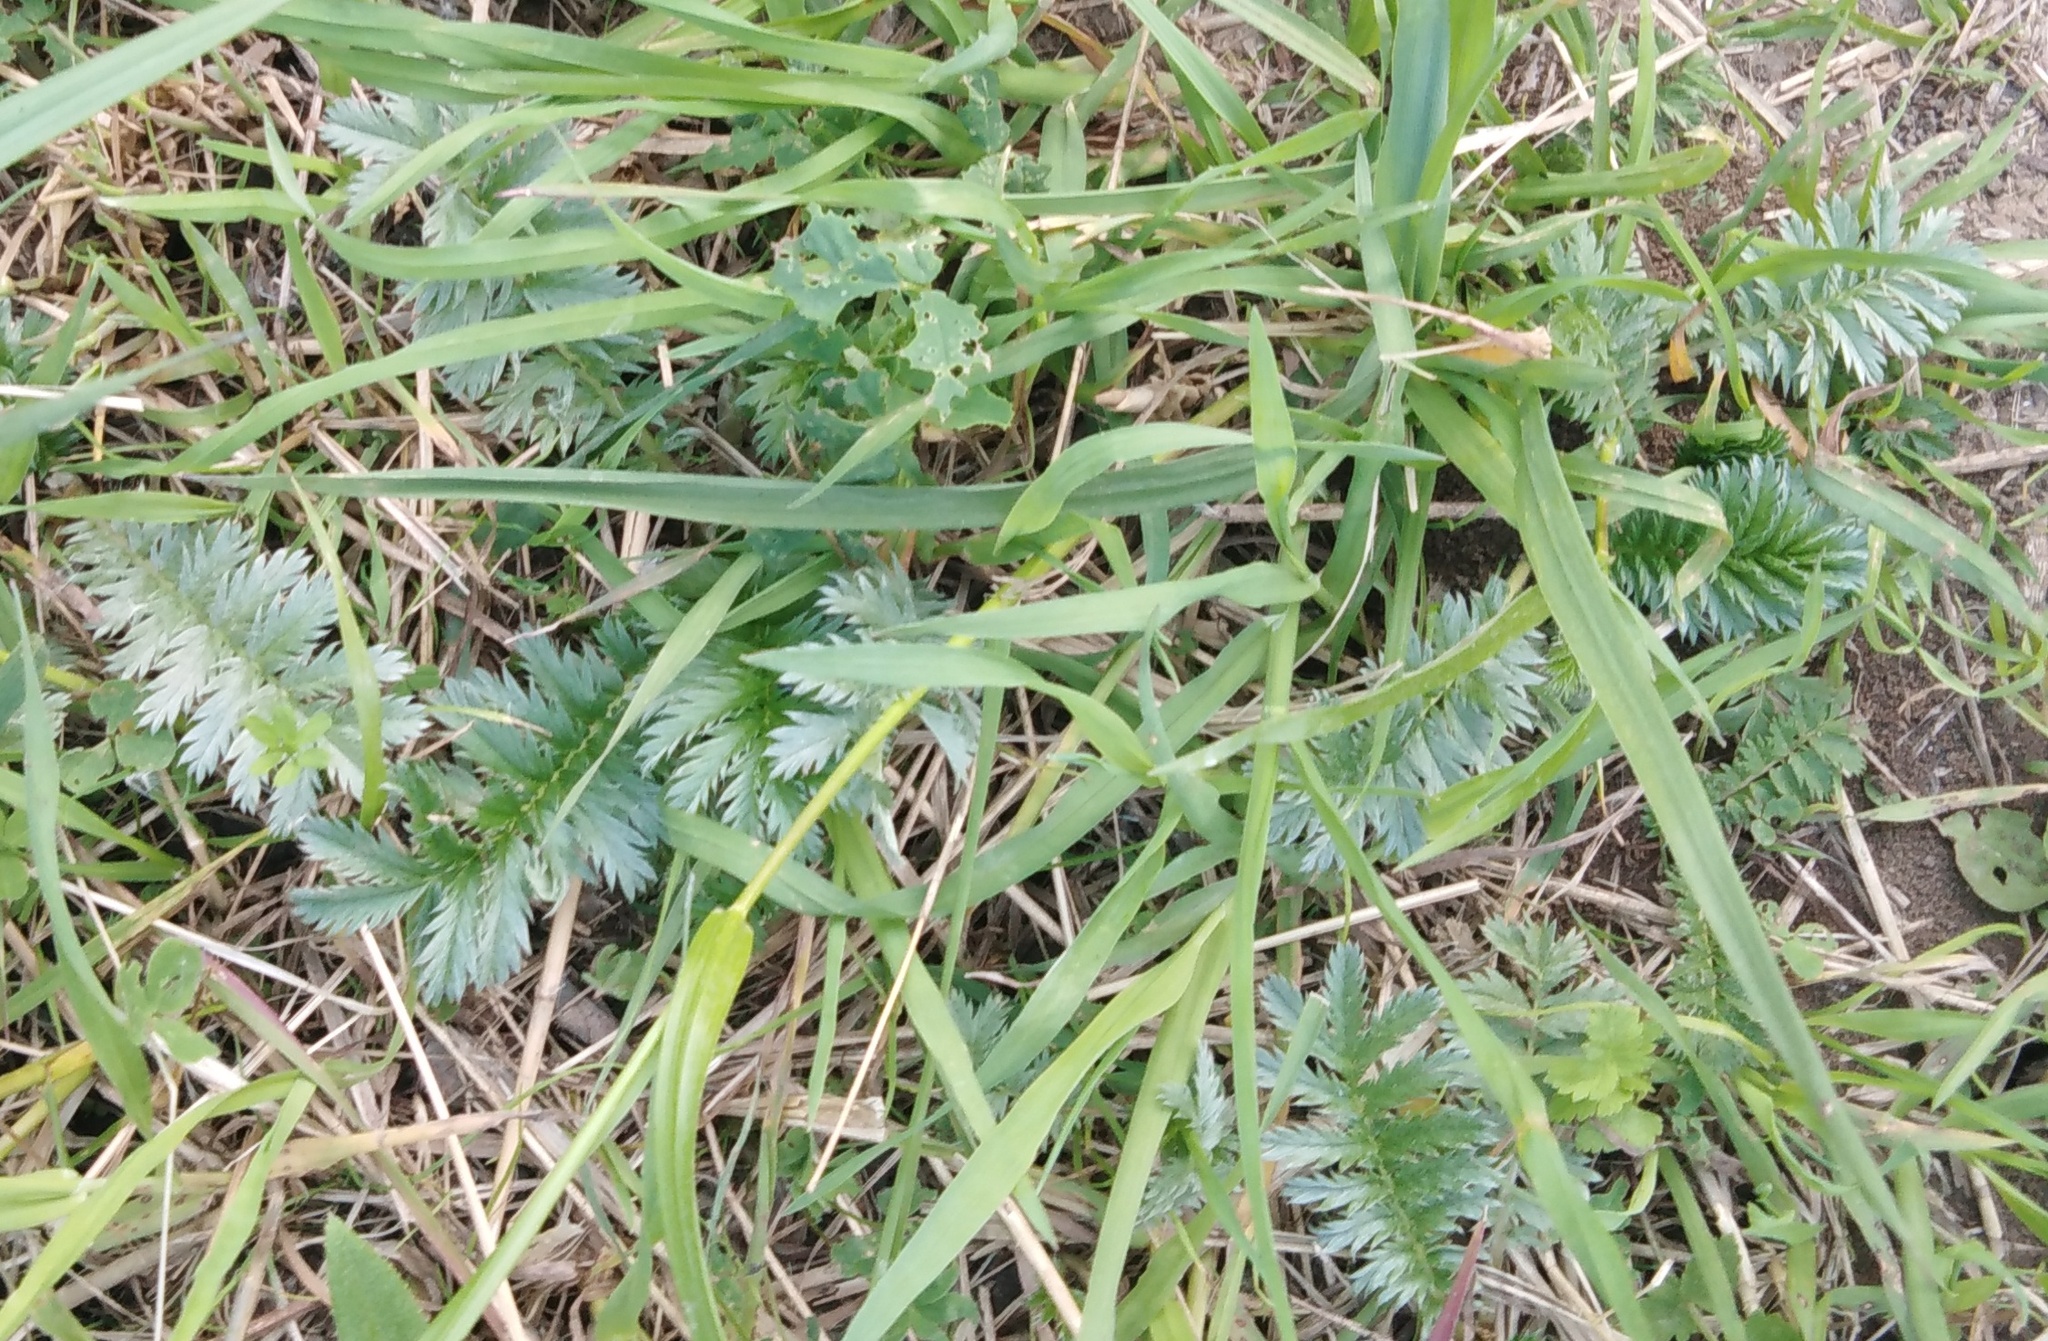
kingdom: Plantae
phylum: Tracheophyta
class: Magnoliopsida
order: Rosales
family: Rosaceae
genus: Argentina
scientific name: Argentina anserina
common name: Common silverweed
